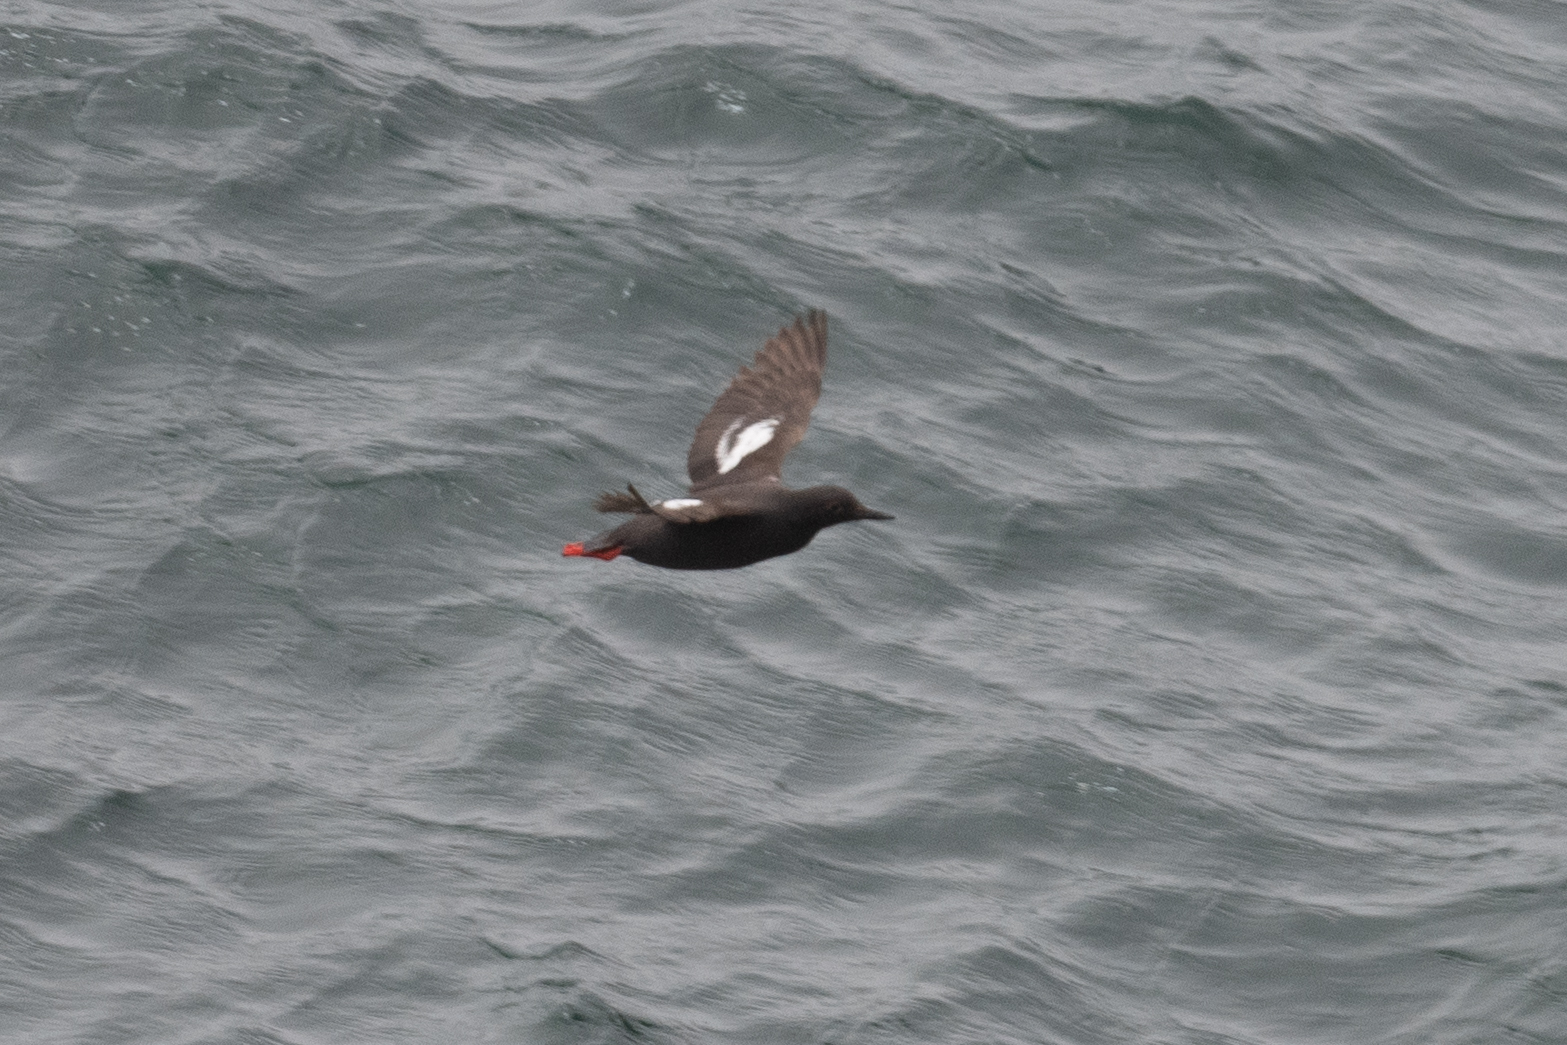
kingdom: Animalia
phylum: Chordata
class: Aves
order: Charadriiformes
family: Alcidae
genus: Cepphus
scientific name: Cepphus columba
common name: Pigeon guillemot
